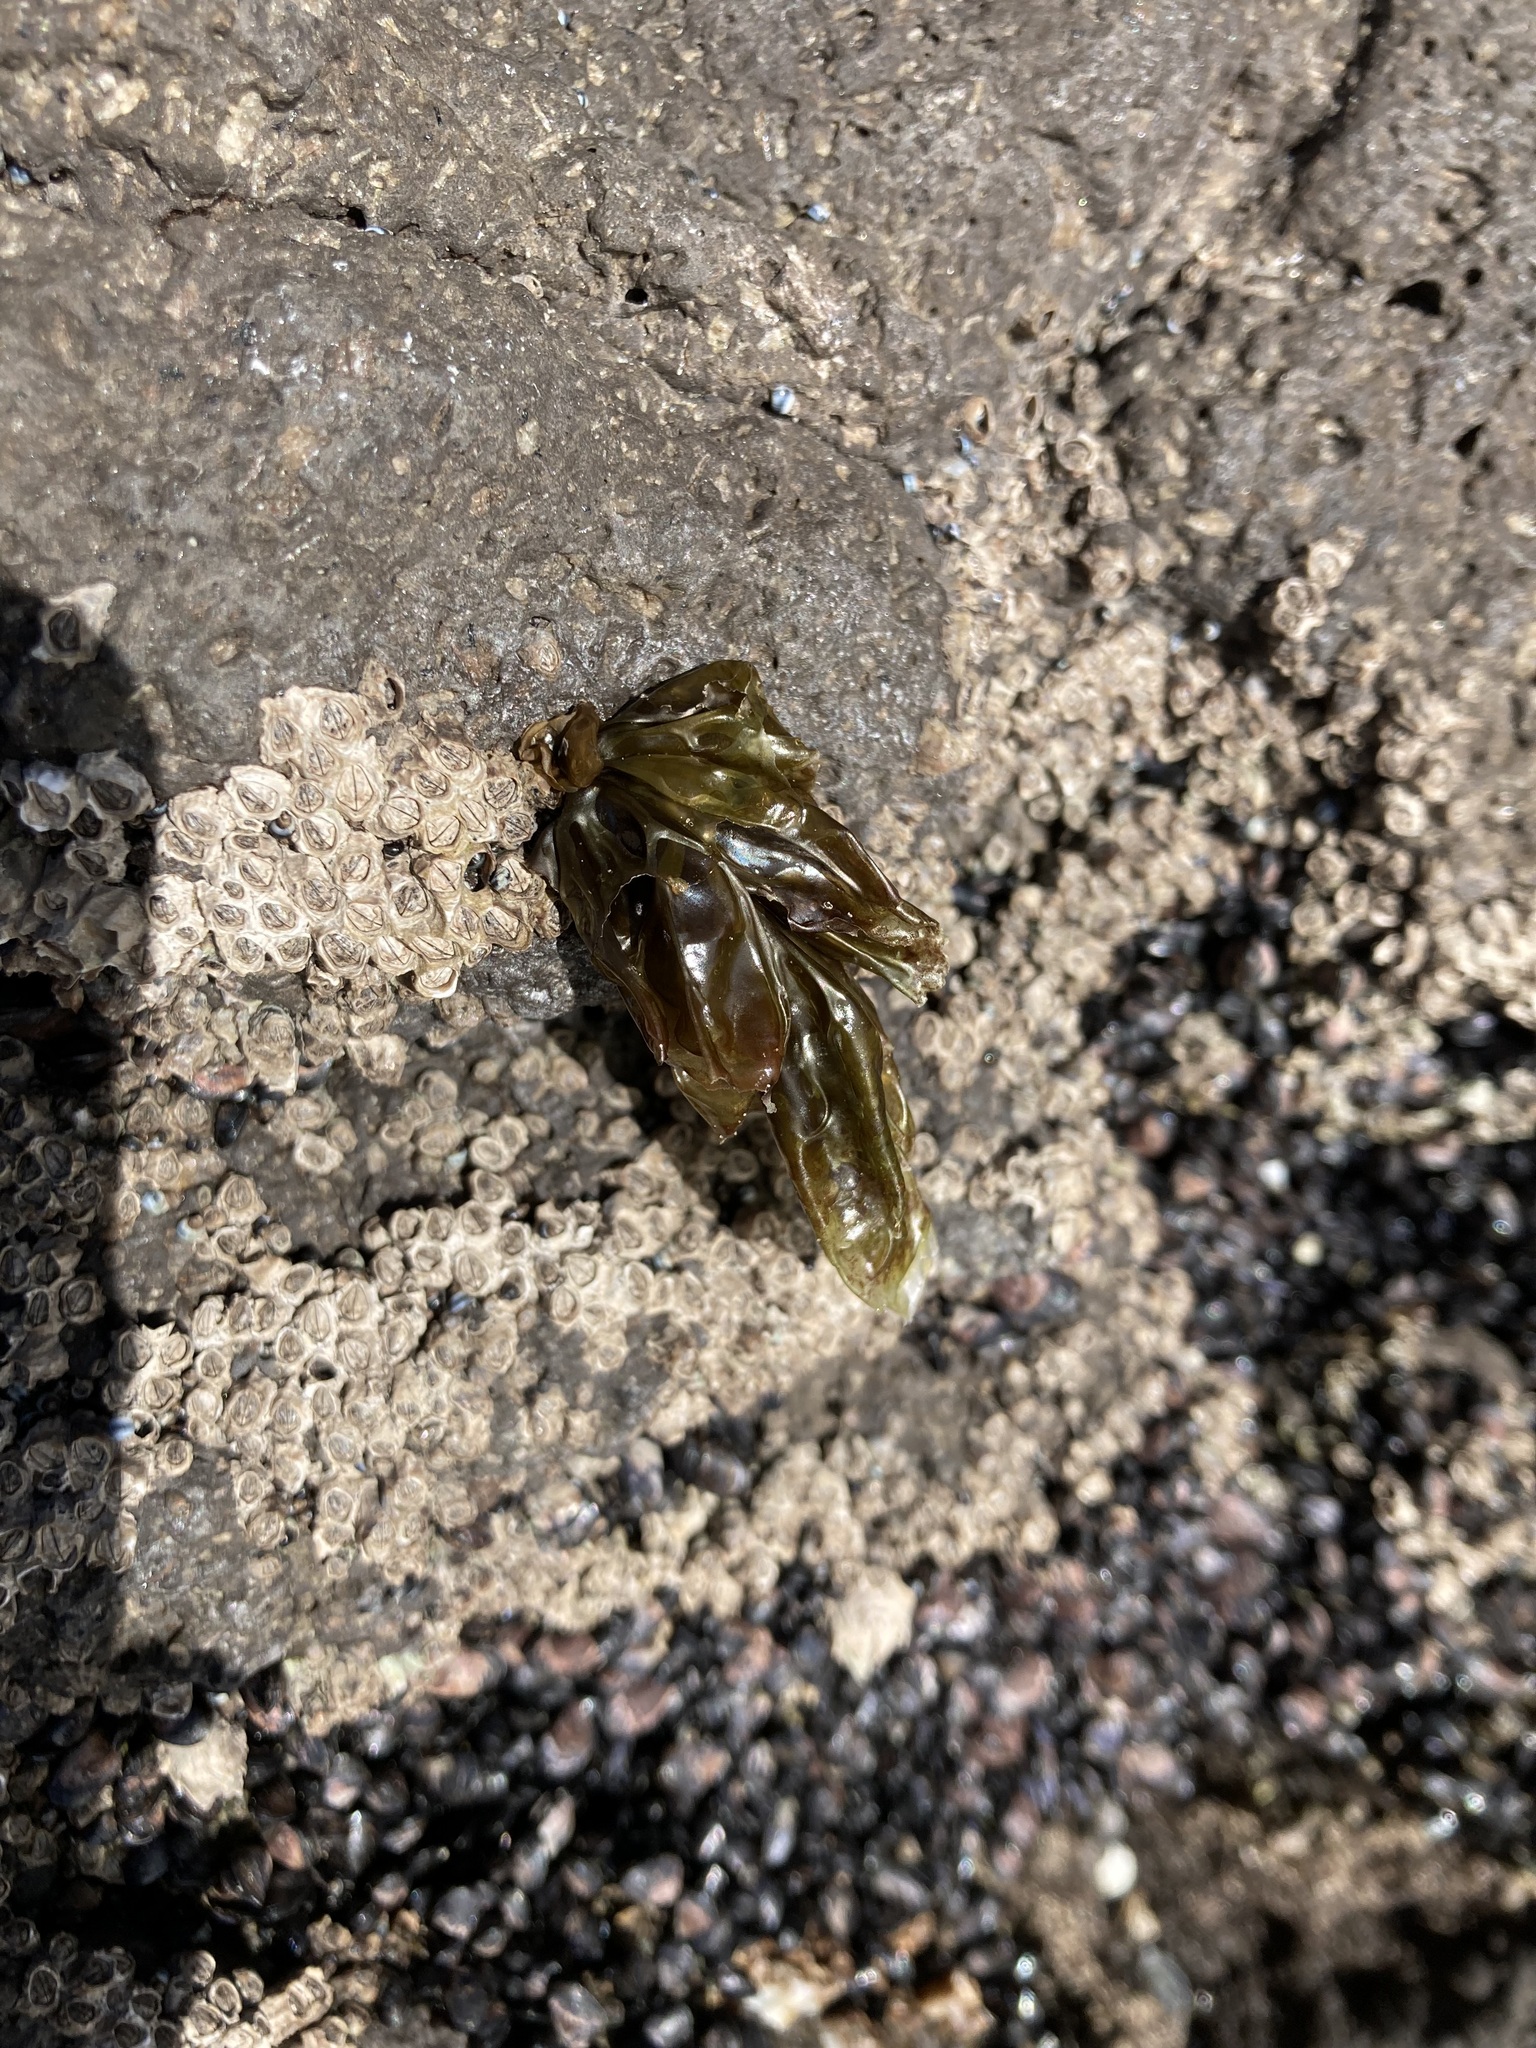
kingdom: Plantae
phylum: Rhodophyta
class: Bangiophyceae
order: Bangiales
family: Bangiaceae
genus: Clymene
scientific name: Clymene coleana
